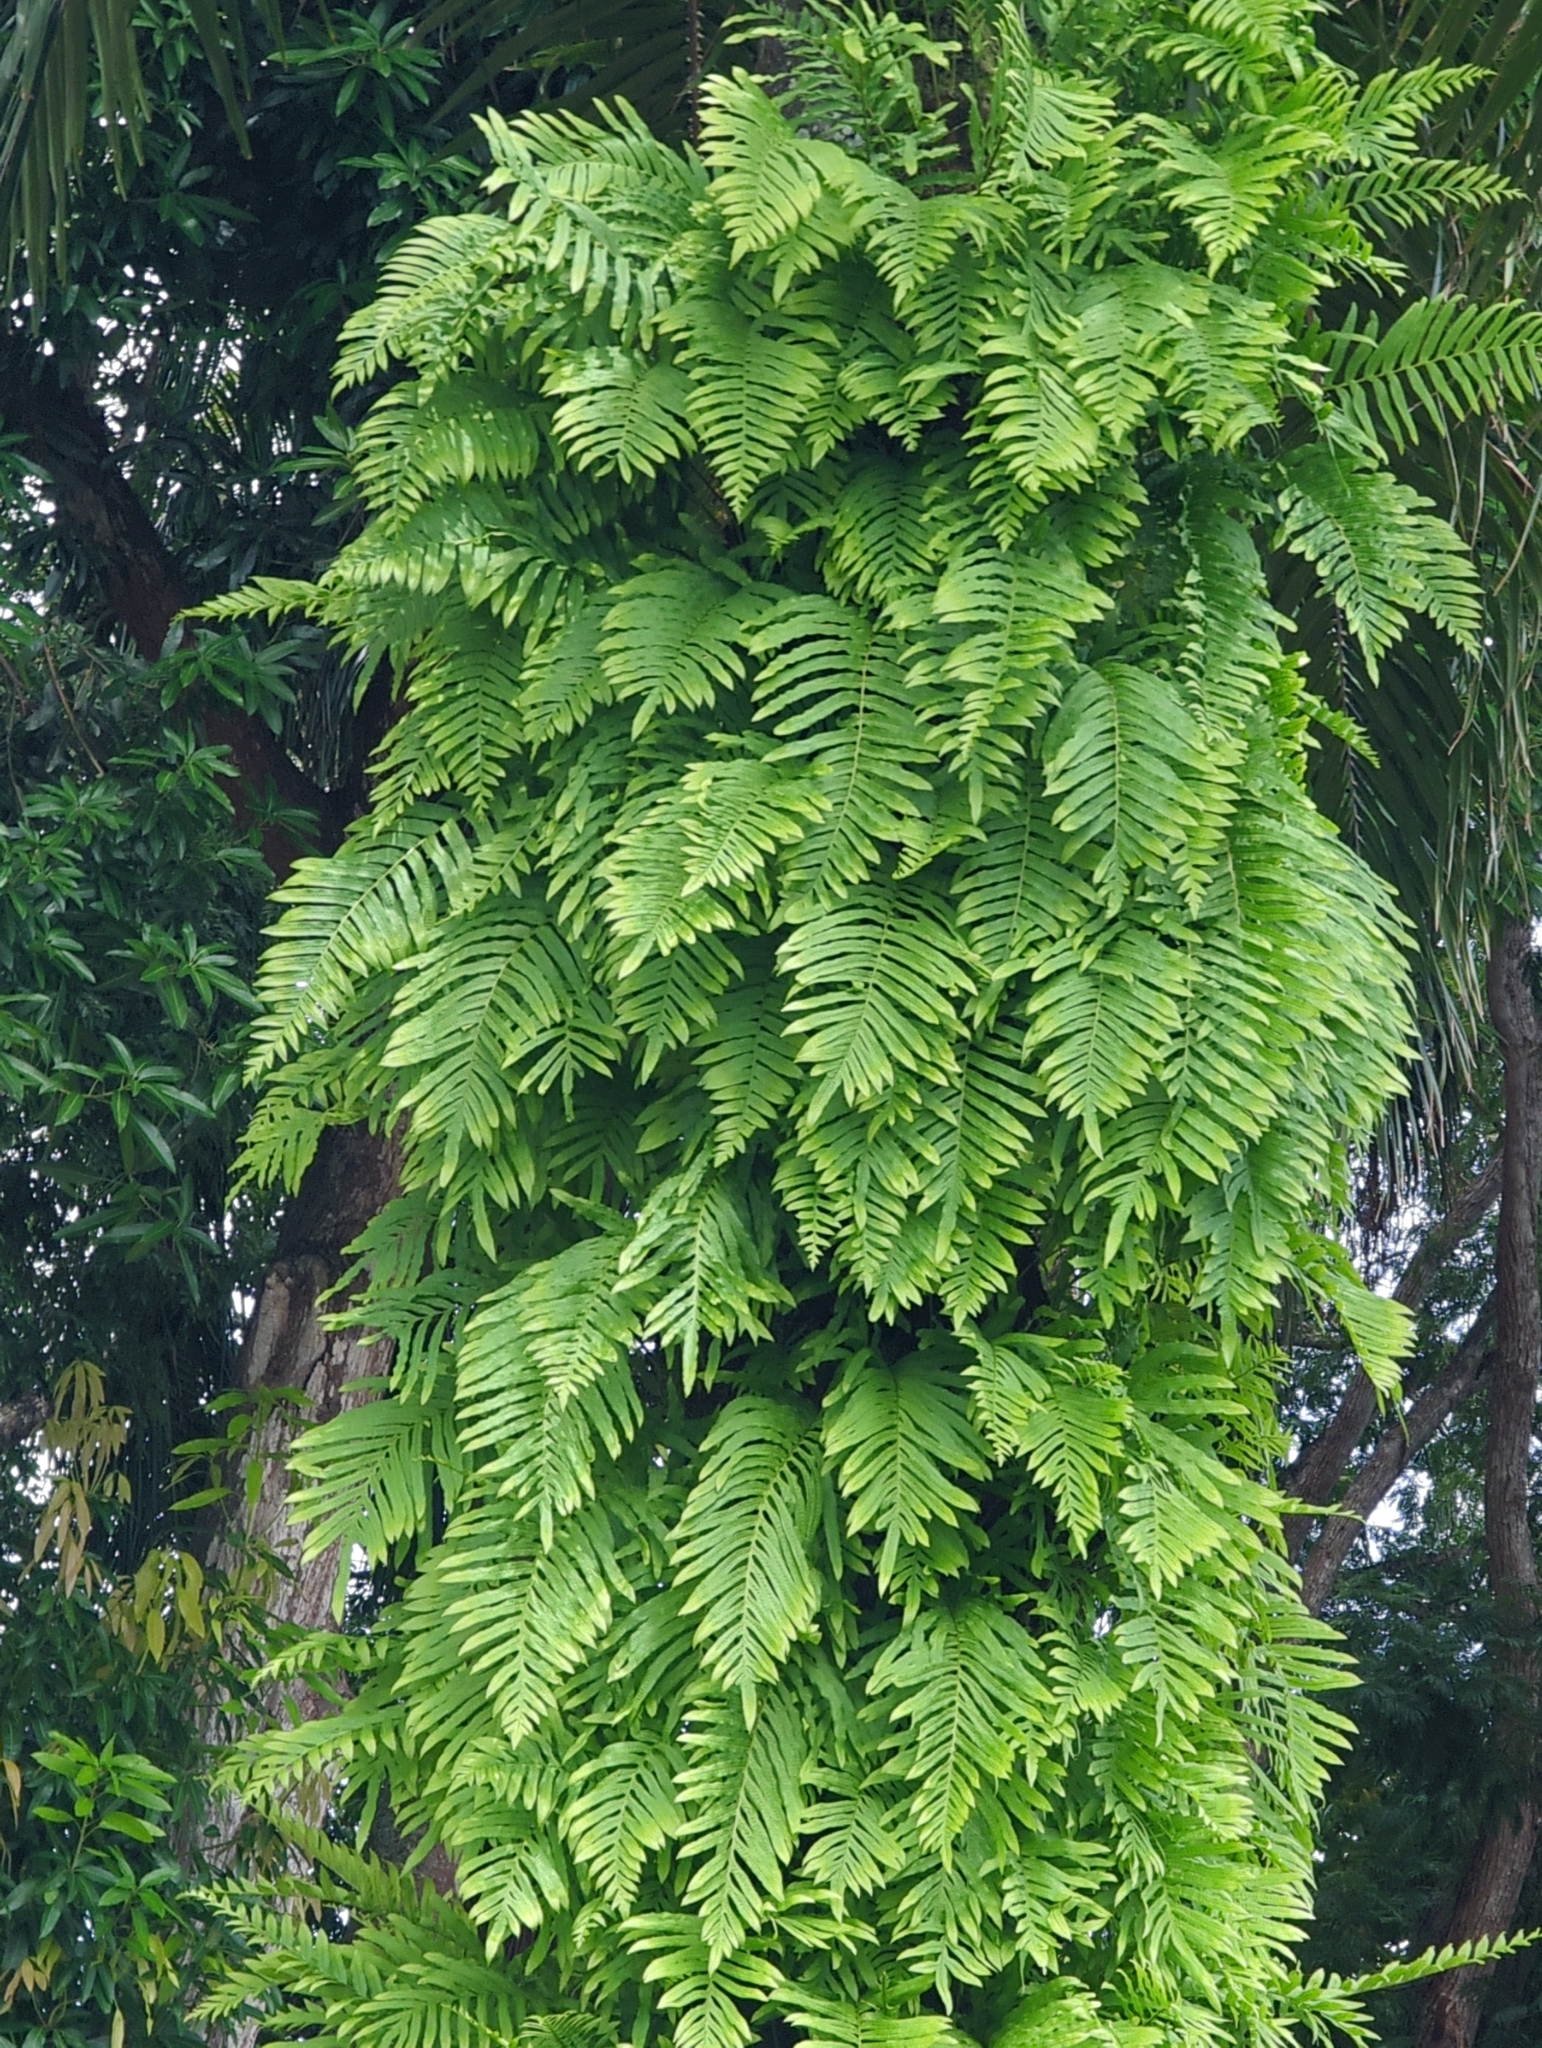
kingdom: Plantae
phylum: Tracheophyta
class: Polypodiopsida
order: Polypodiales
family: Polypodiaceae
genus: Pleopeltis
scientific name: Pleopeltis polypodioides
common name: Resurrection fern
